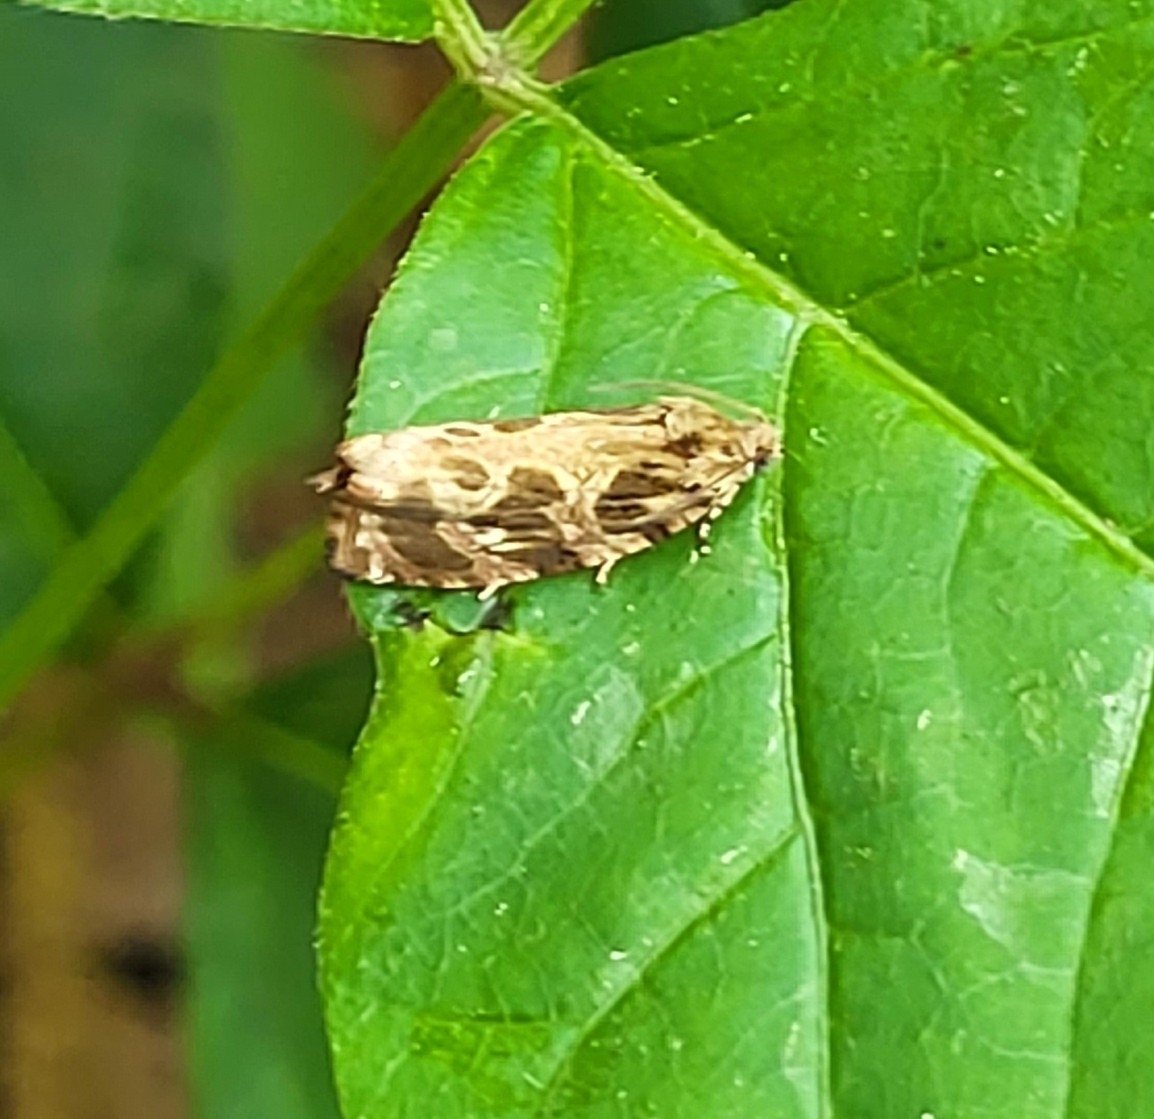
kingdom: Animalia
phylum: Arthropoda
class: Insecta
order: Lepidoptera
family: Tortricidae
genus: Phaecasiophora
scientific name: Phaecasiophora confixana
